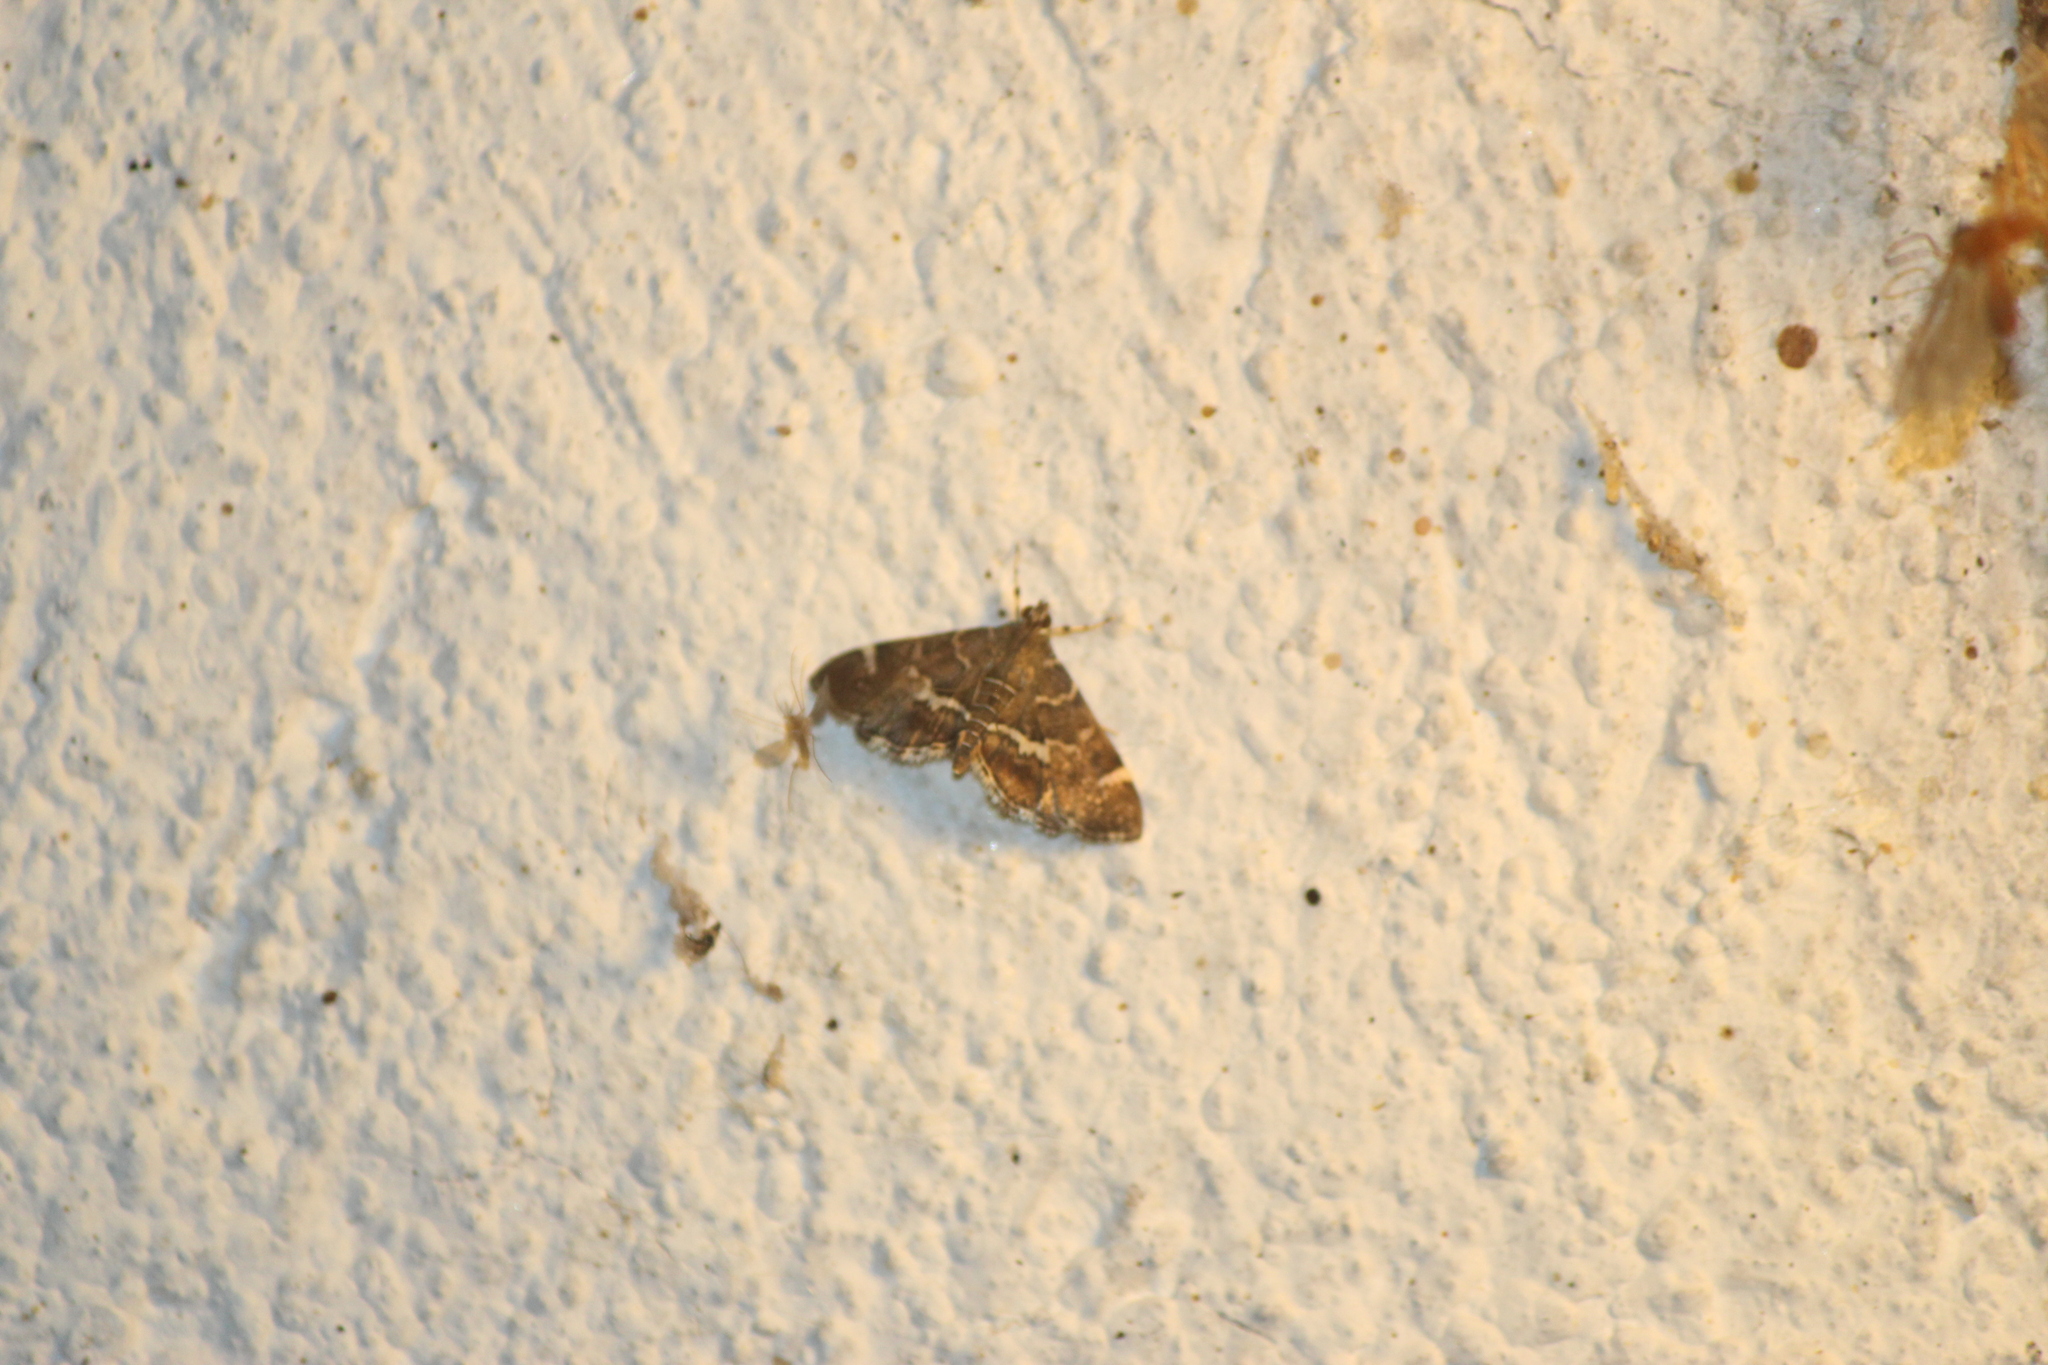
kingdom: Animalia
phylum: Arthropoda
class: Insecta
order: Lepidoptera
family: Crambidae
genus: Hymenia
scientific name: Hymenia perspectalis
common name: Spotted beet webworm
